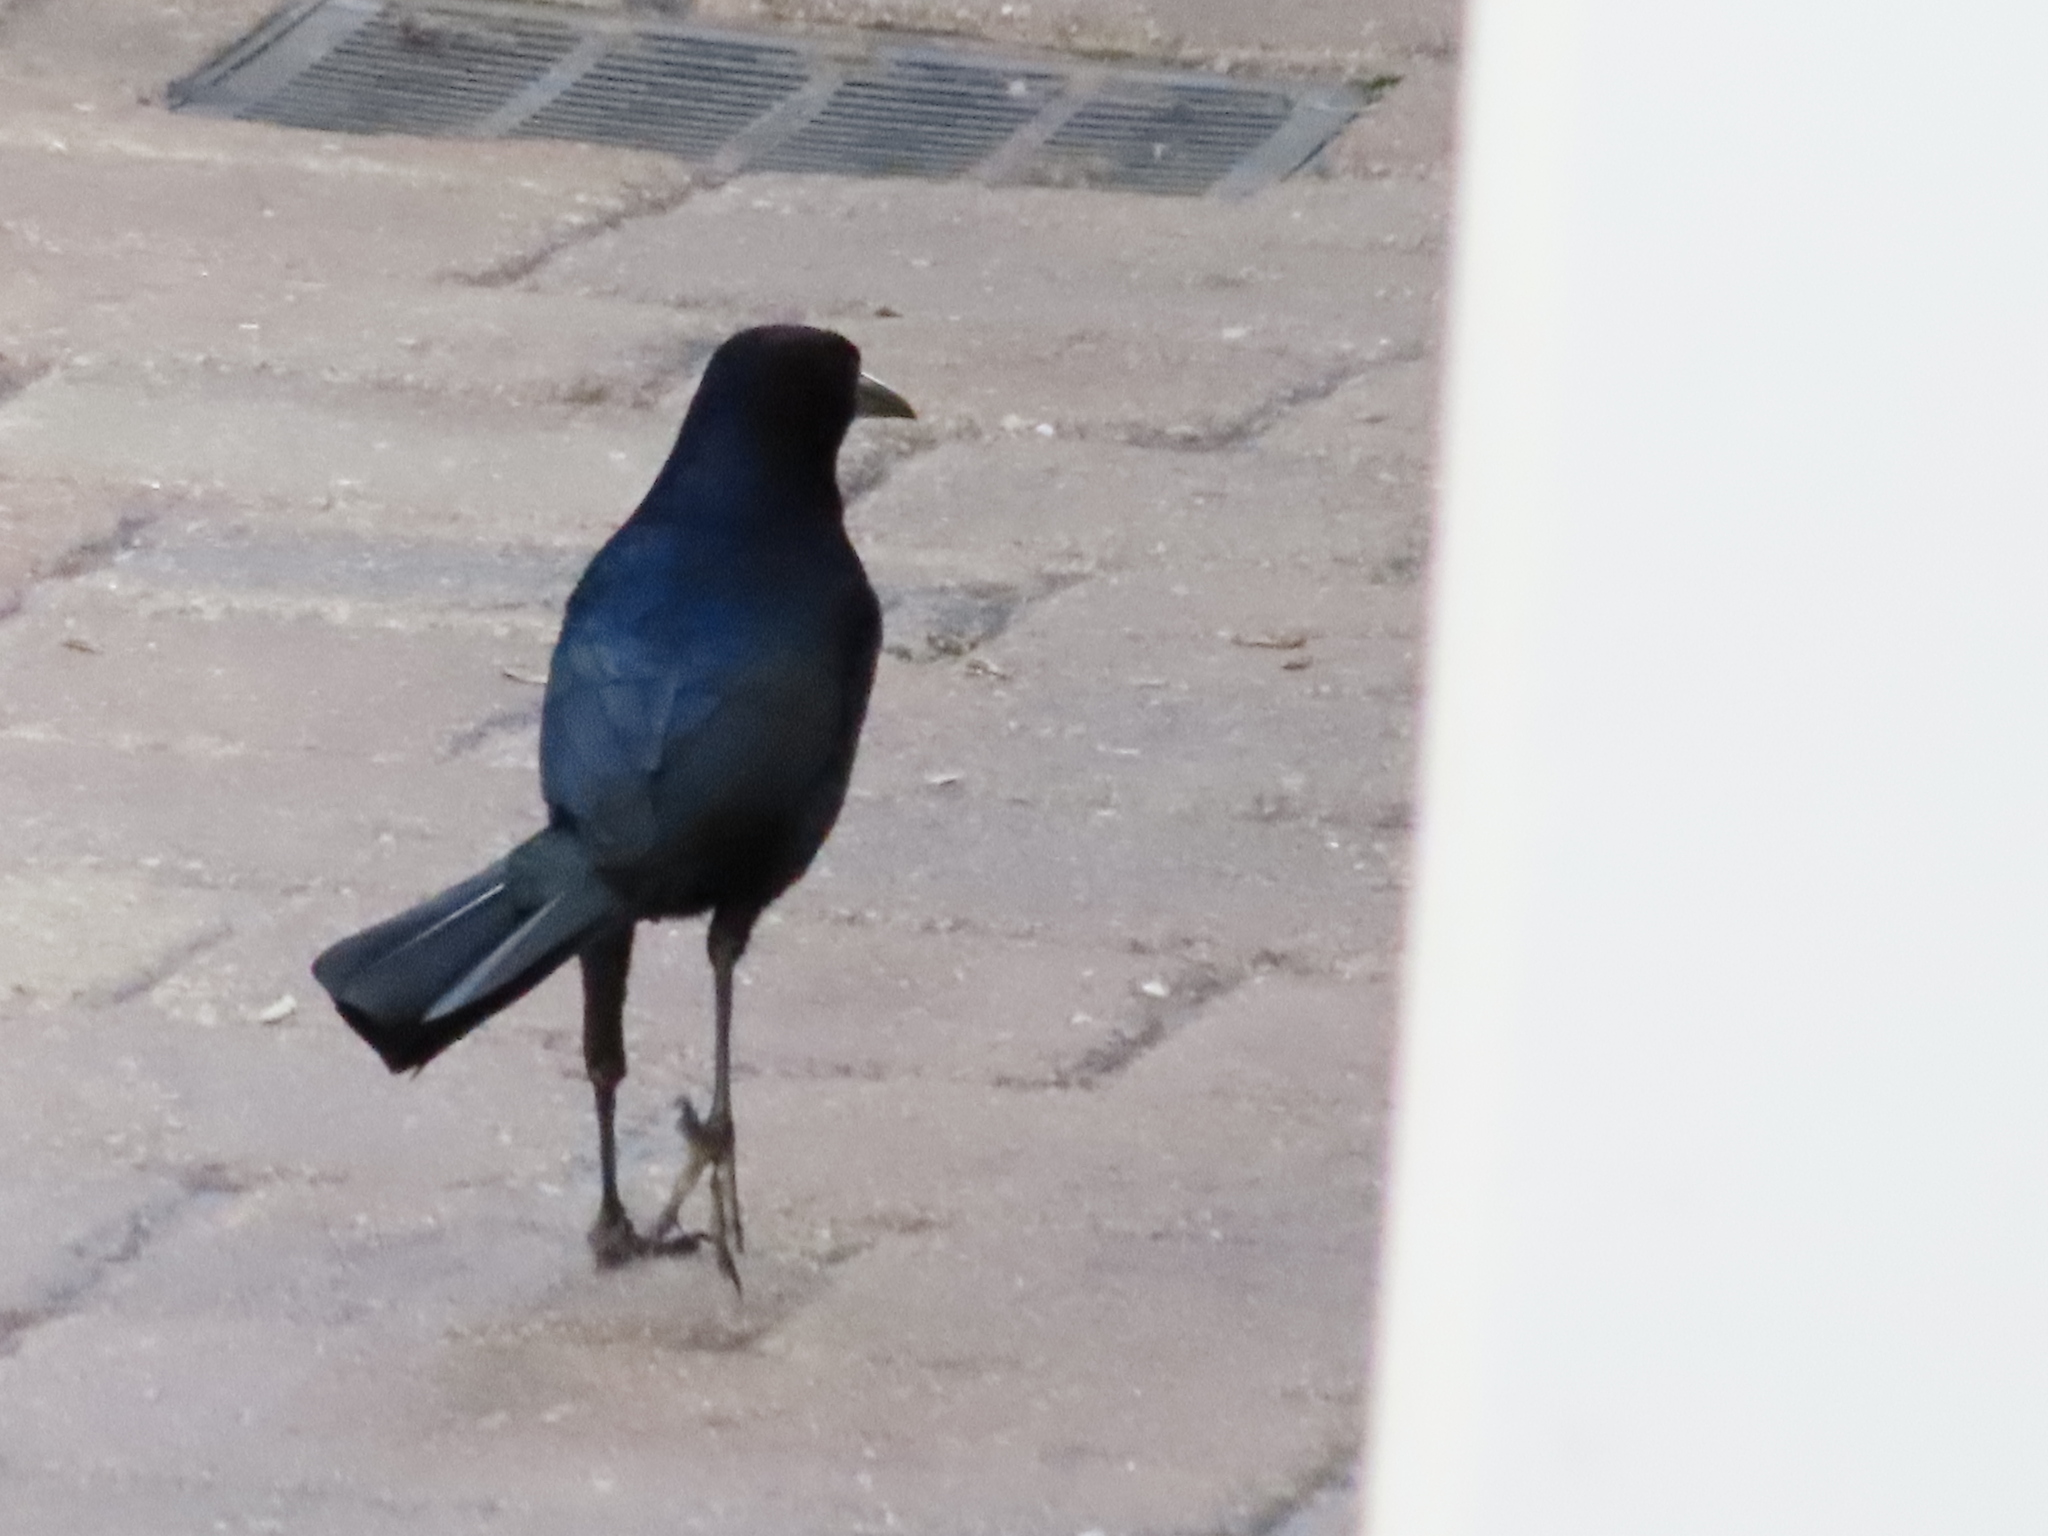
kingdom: Animalia
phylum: Chordata
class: Aves
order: Passeriformes
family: Icteridae
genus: Quiscalus
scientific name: Quiscalus major
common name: Boat-tailed grackle
